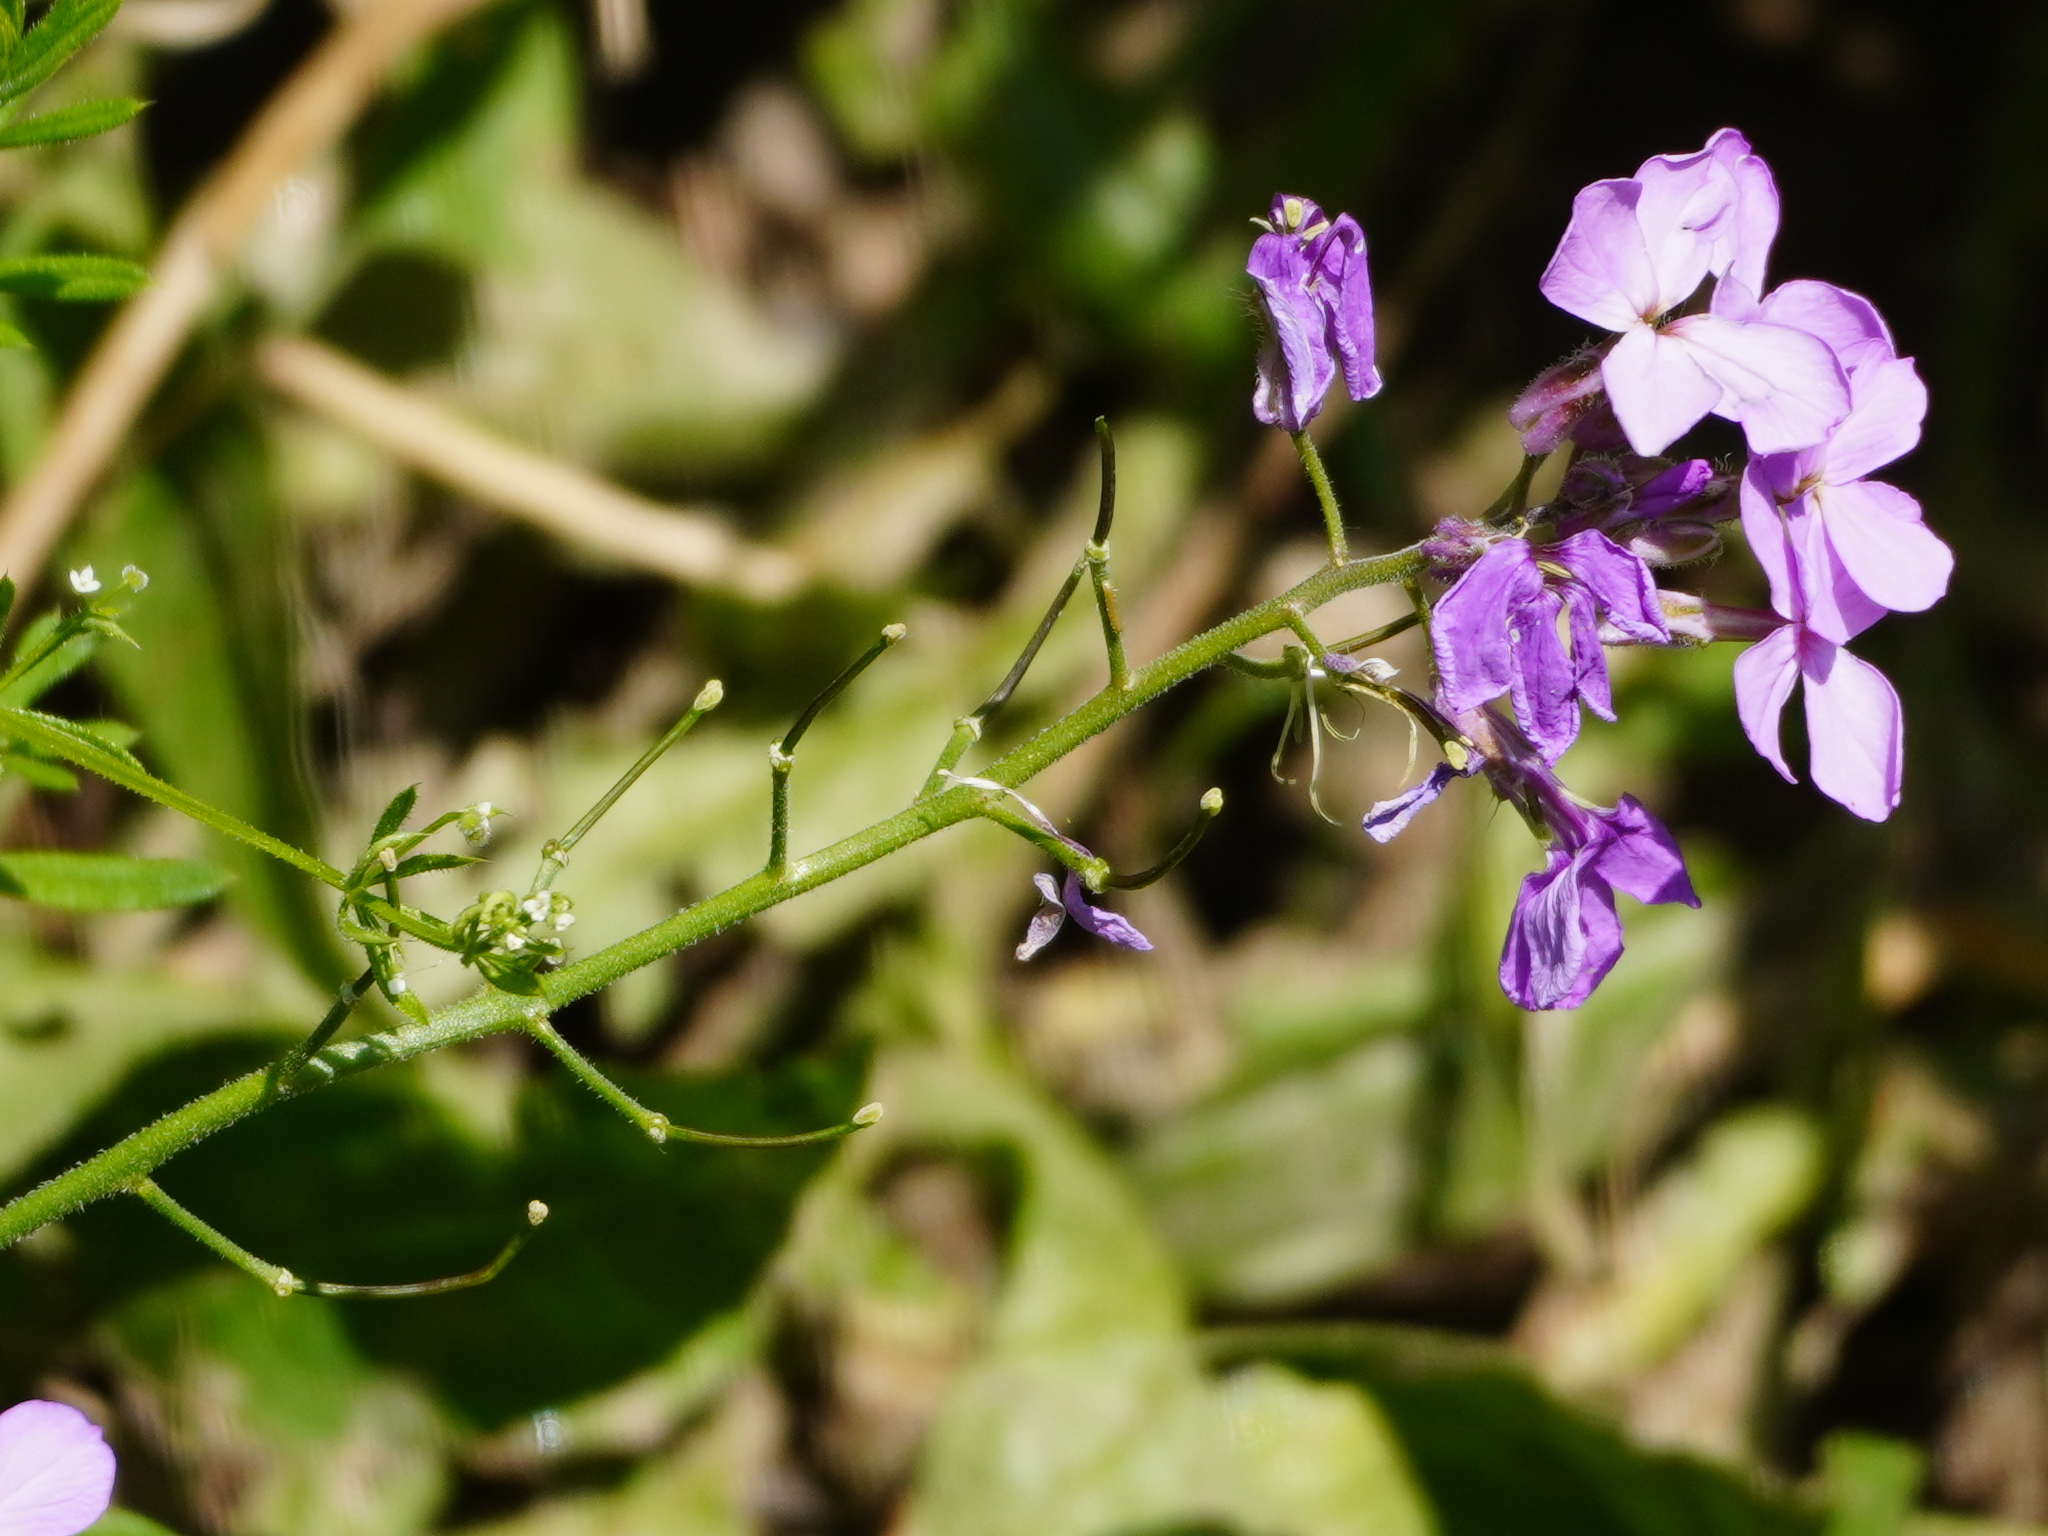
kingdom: Plantae
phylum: Tracheophyta
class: Magnoliopsida
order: Brassicales
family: Brassicaceae
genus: Hesperis
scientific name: Hesperis matronalis
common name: Dame's-violet
